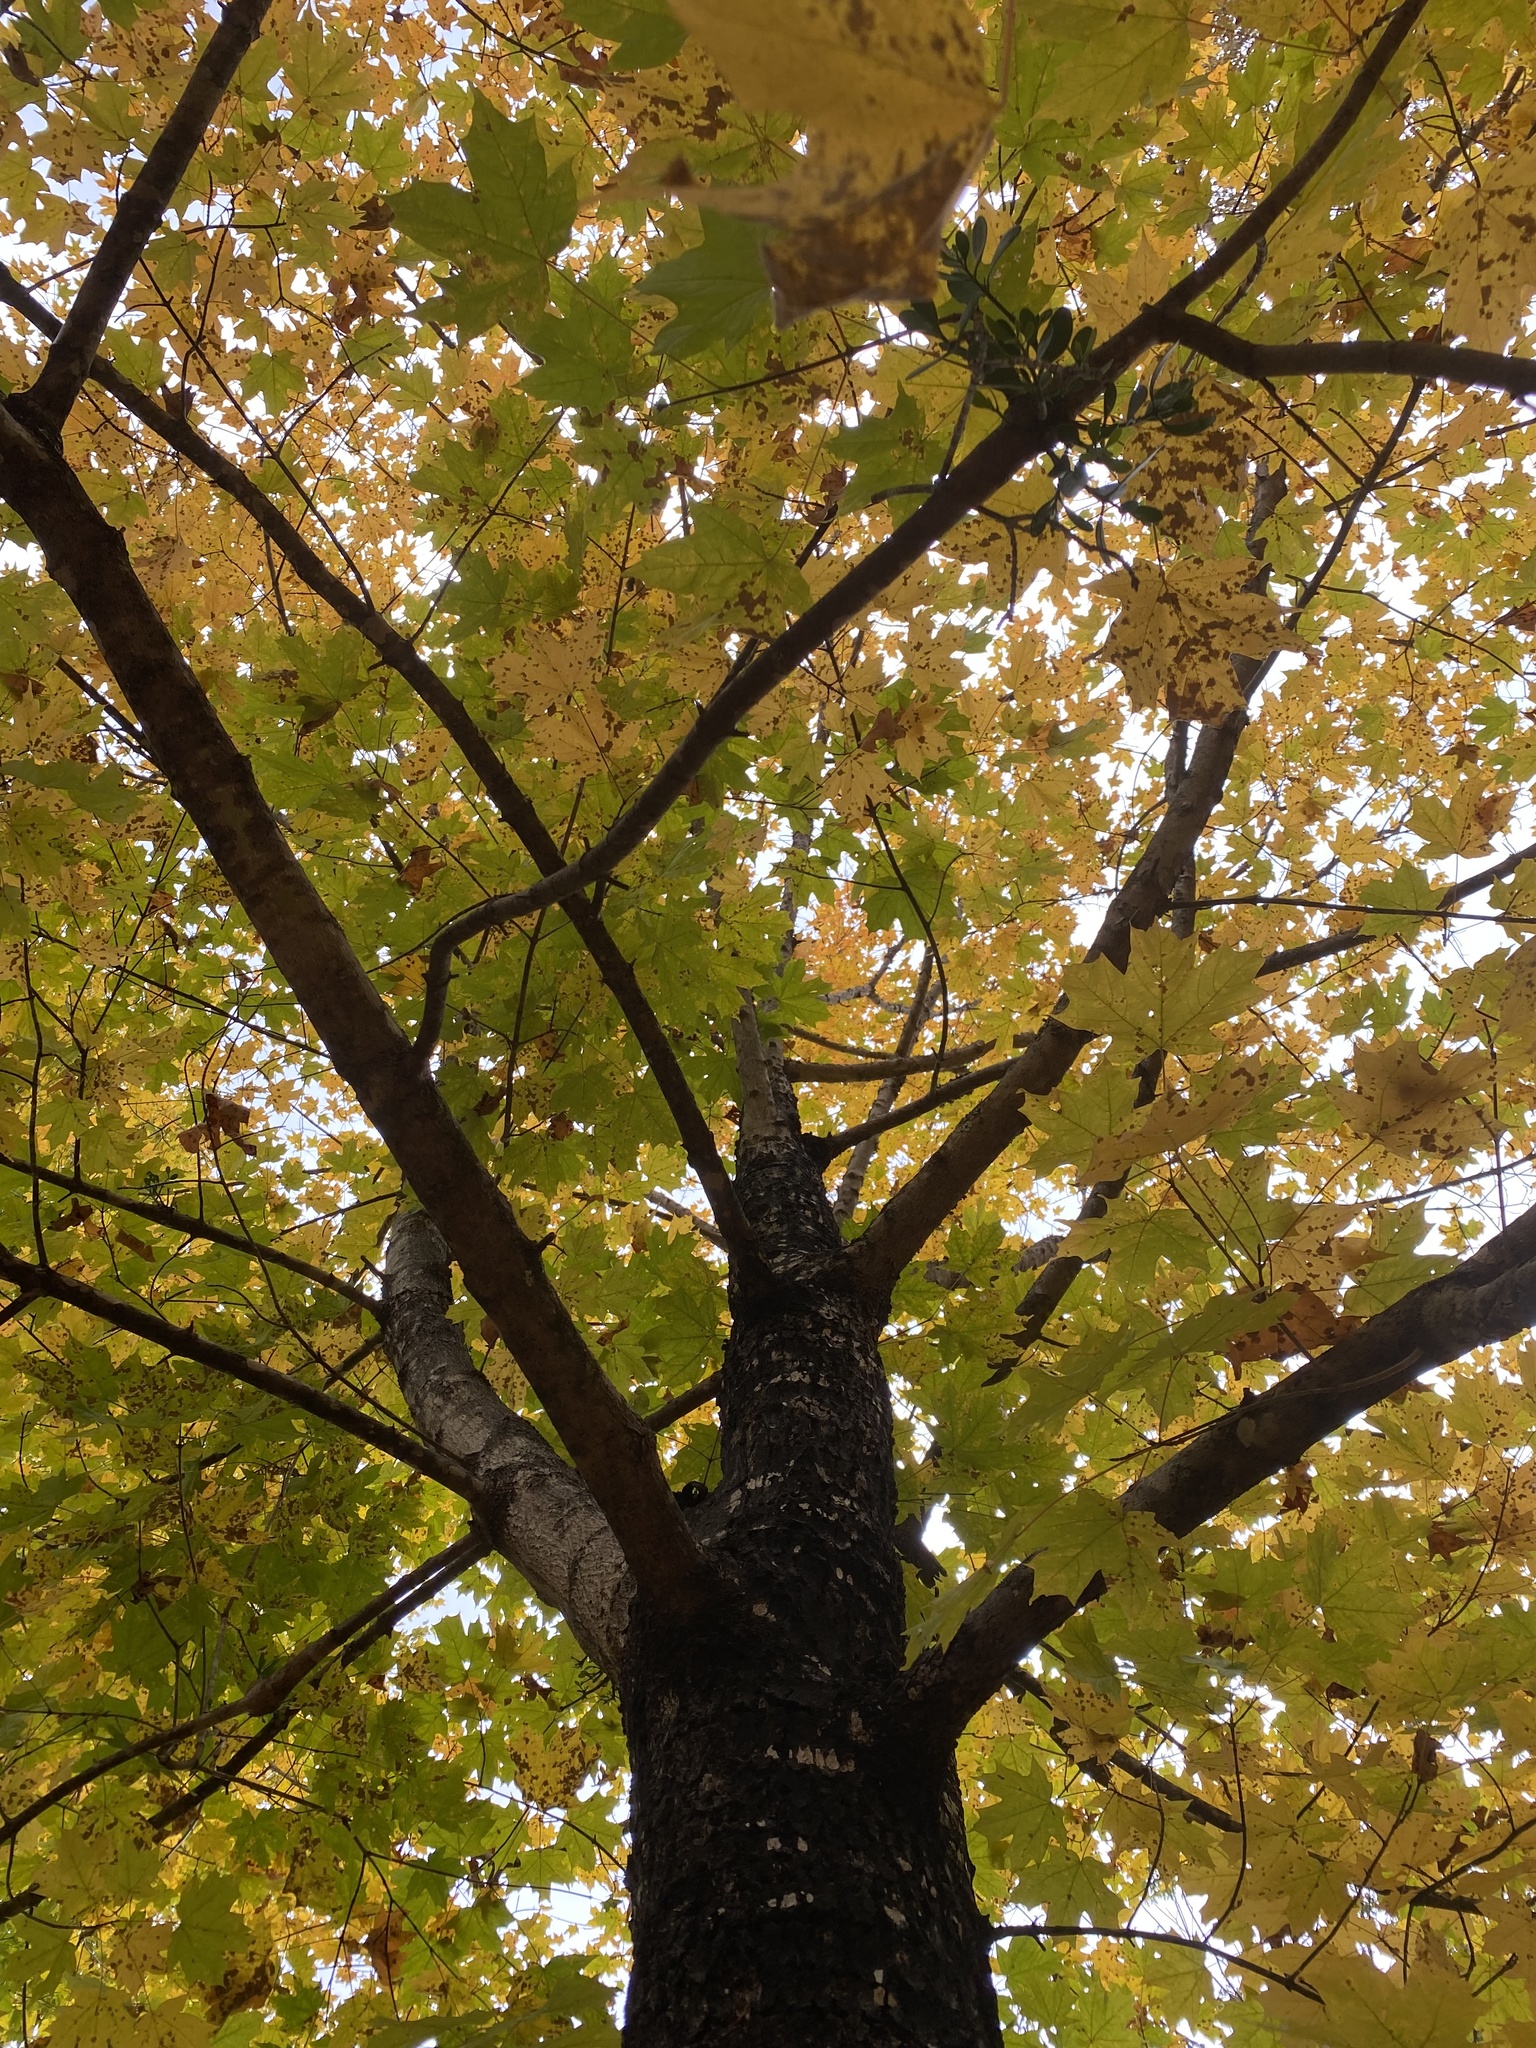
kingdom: Plantae
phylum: Tracheophyta
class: Magnoliopsida
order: Sapindales
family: Sapindaceae
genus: Acer
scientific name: Acer saccharum
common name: Sugar maple
